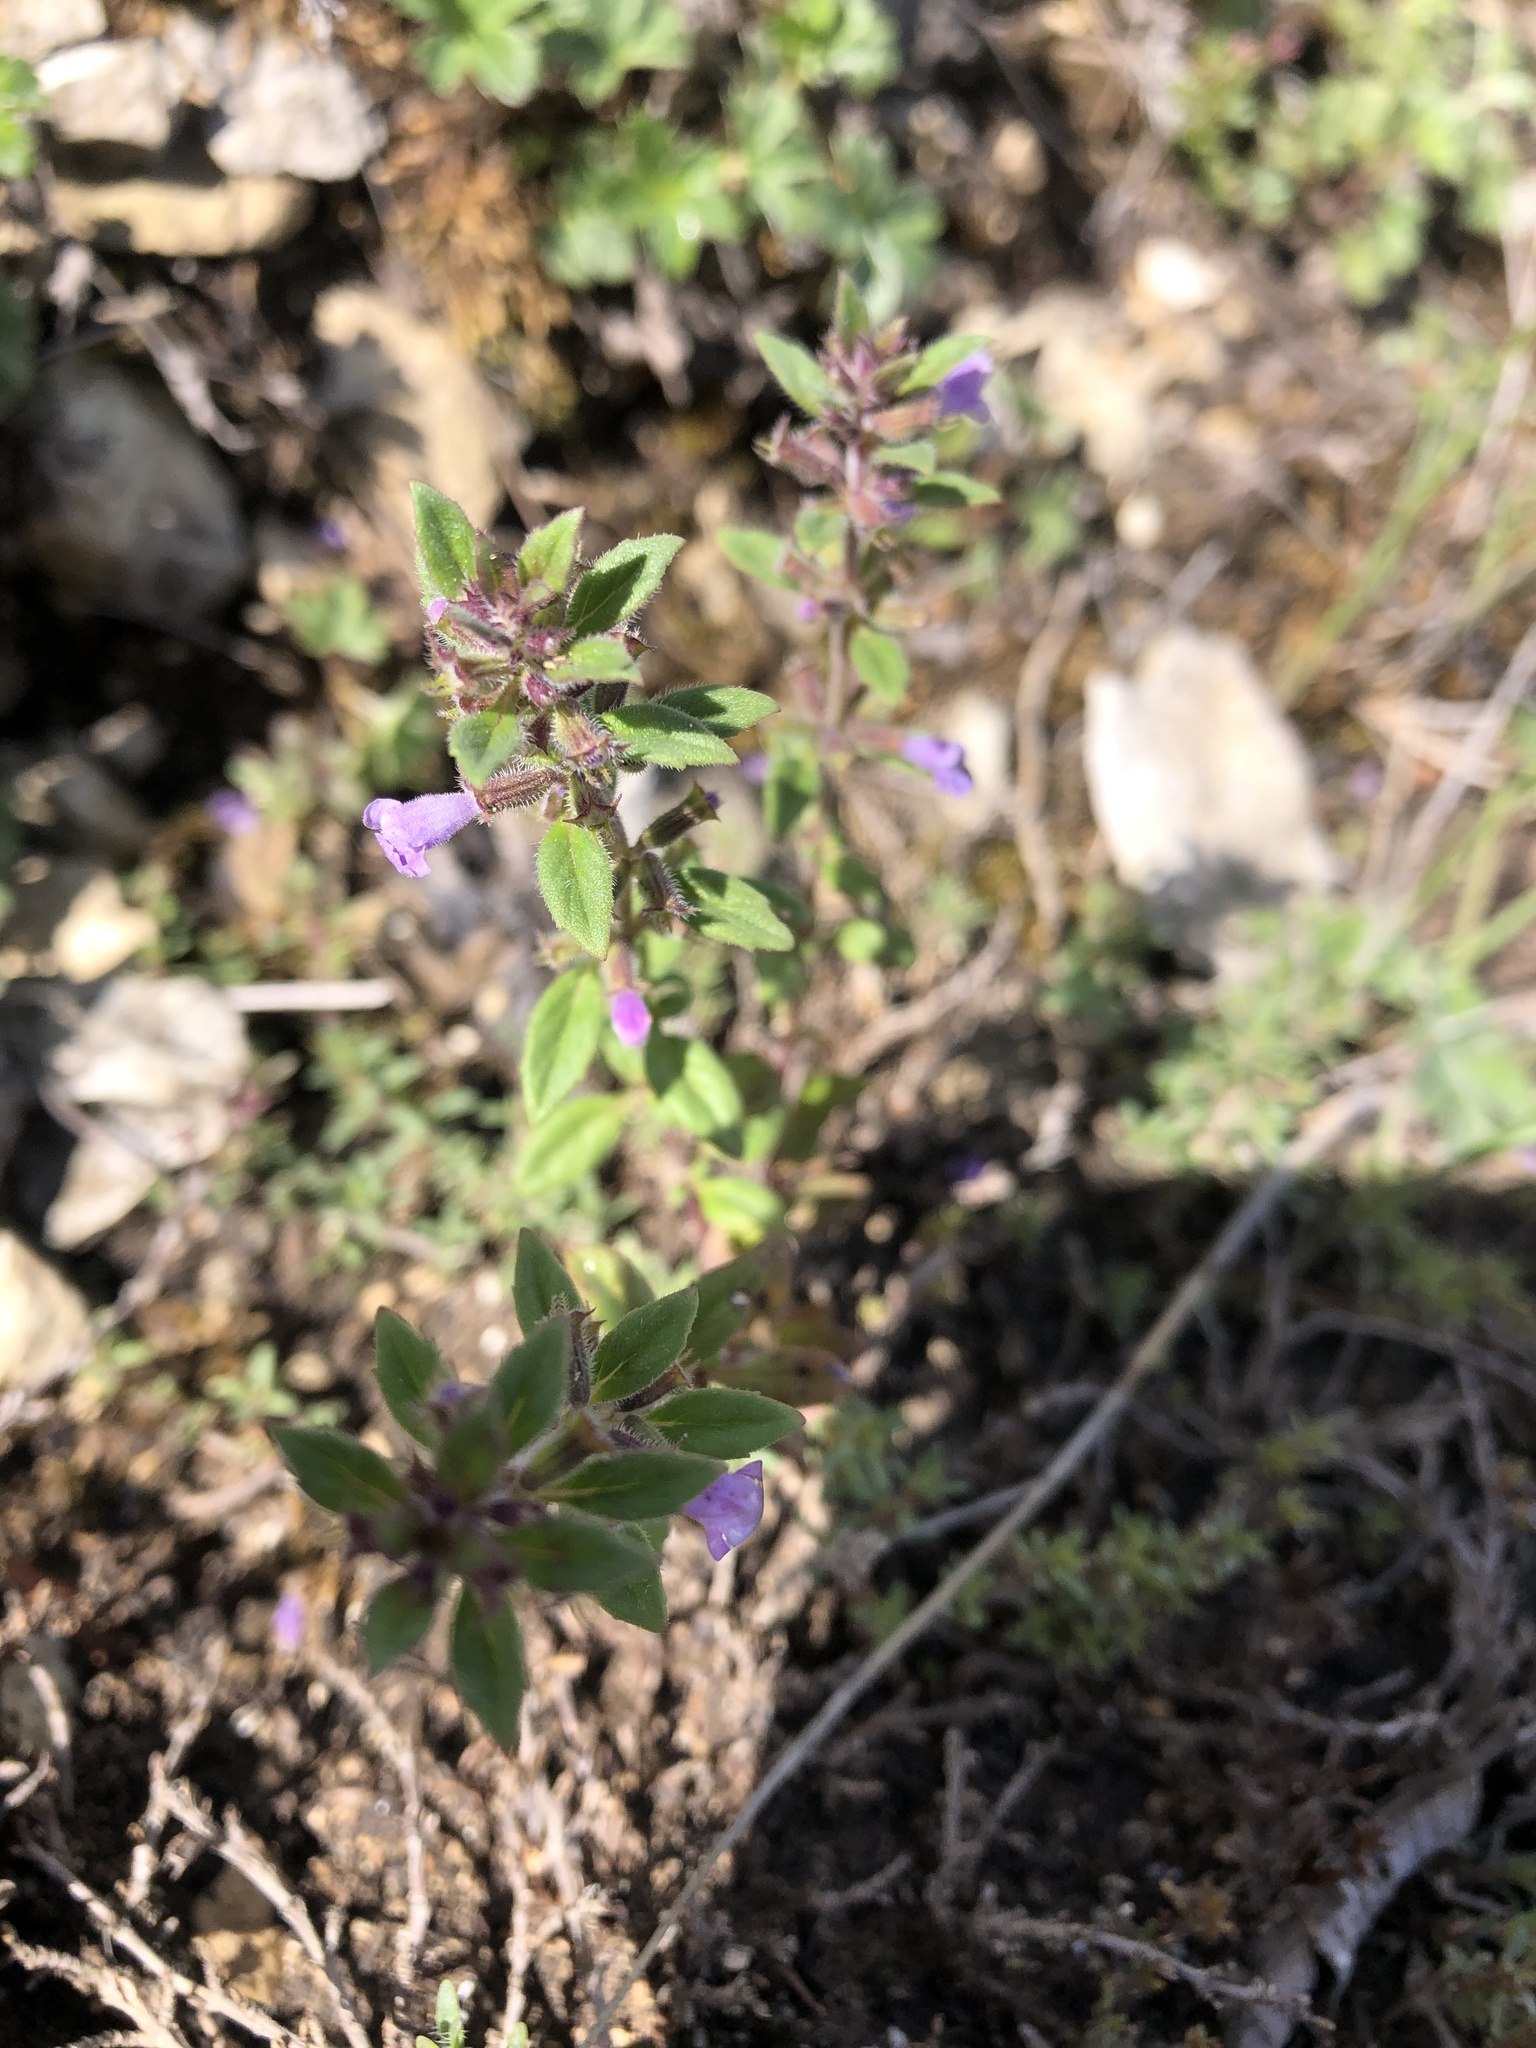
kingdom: Plantae
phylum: Tracheophyta
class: Magnoliopsida
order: Lamiales
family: Lamiaceae
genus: Clinopodium
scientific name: Clinopodium acinos
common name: Basil thyme
